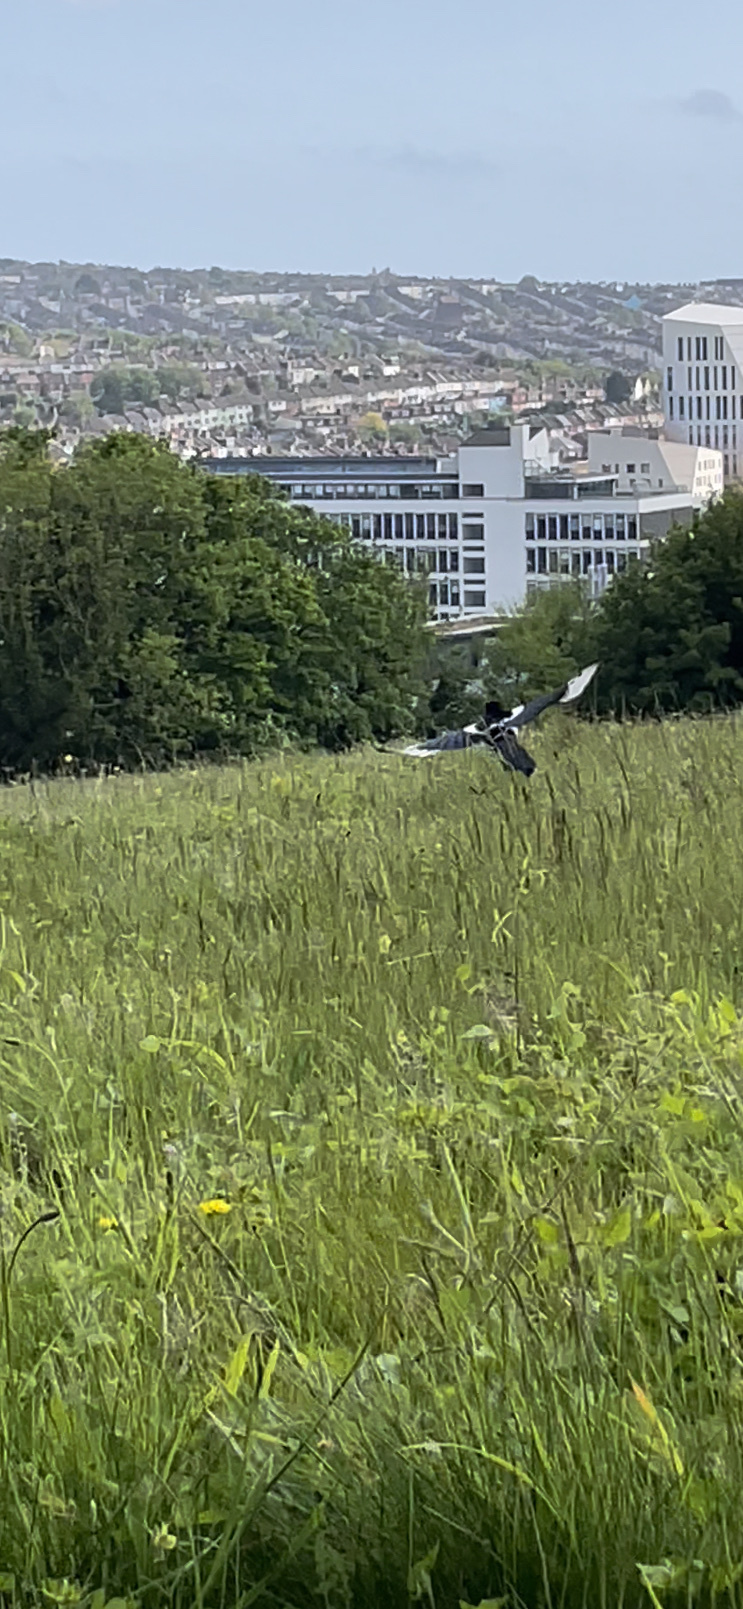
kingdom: Animalia
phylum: Chordata
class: Aves
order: Passeriformes
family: Corvidae
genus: Pica
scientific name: Pica pica
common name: Eurasian magpie
